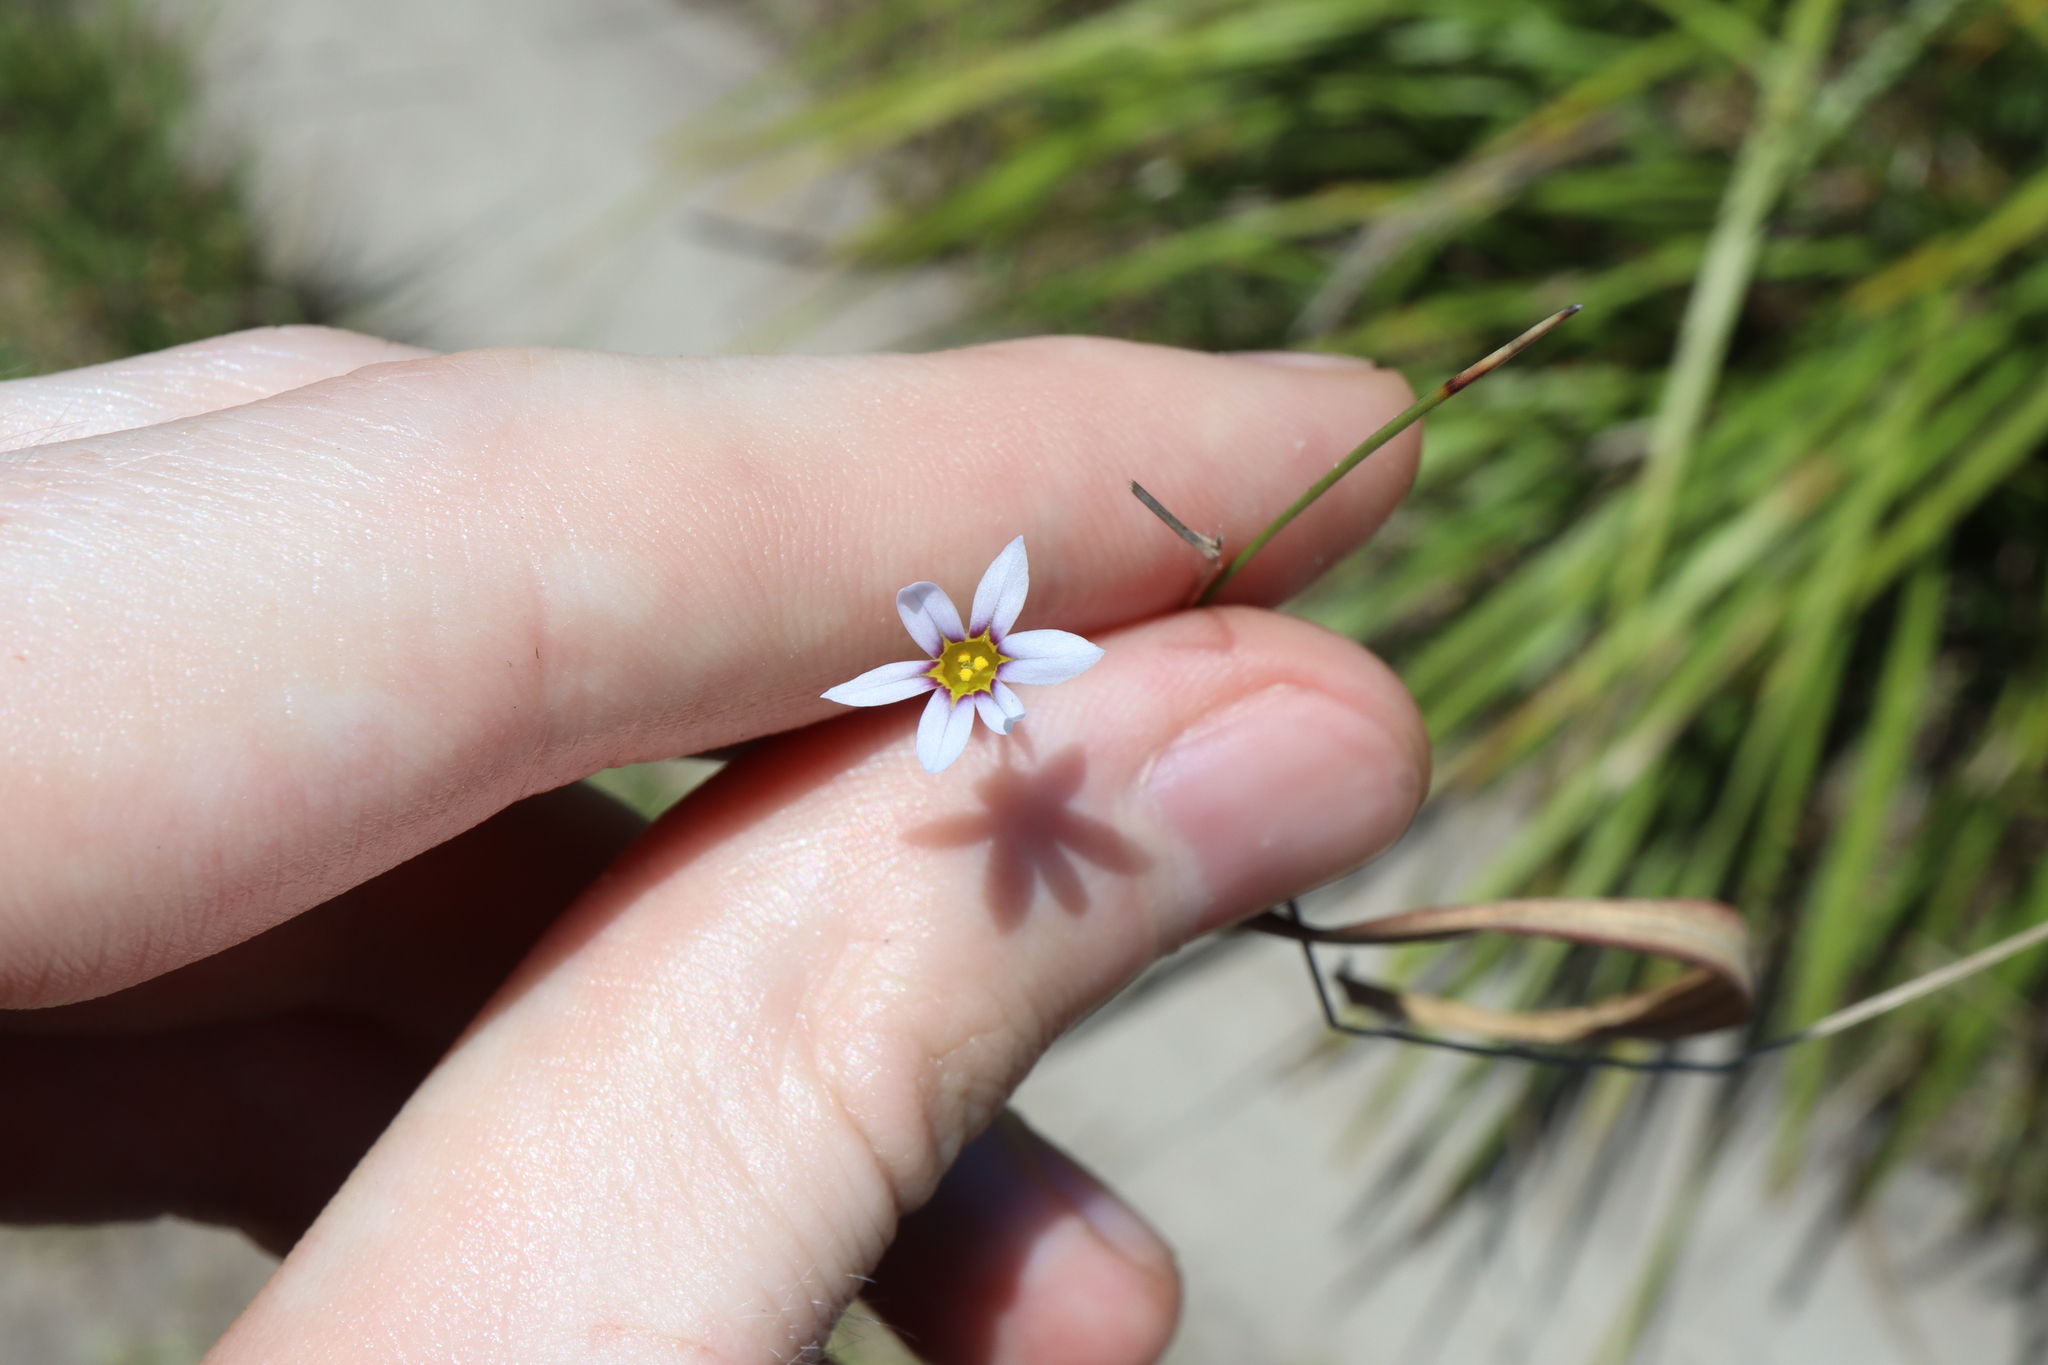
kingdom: Plantae
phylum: Tracheophyta
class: Liliopsida
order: Asparagales
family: Iridaceae
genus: Sisyrinchium
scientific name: Sisyrinchium micranthum
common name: Bermuda pigroot
